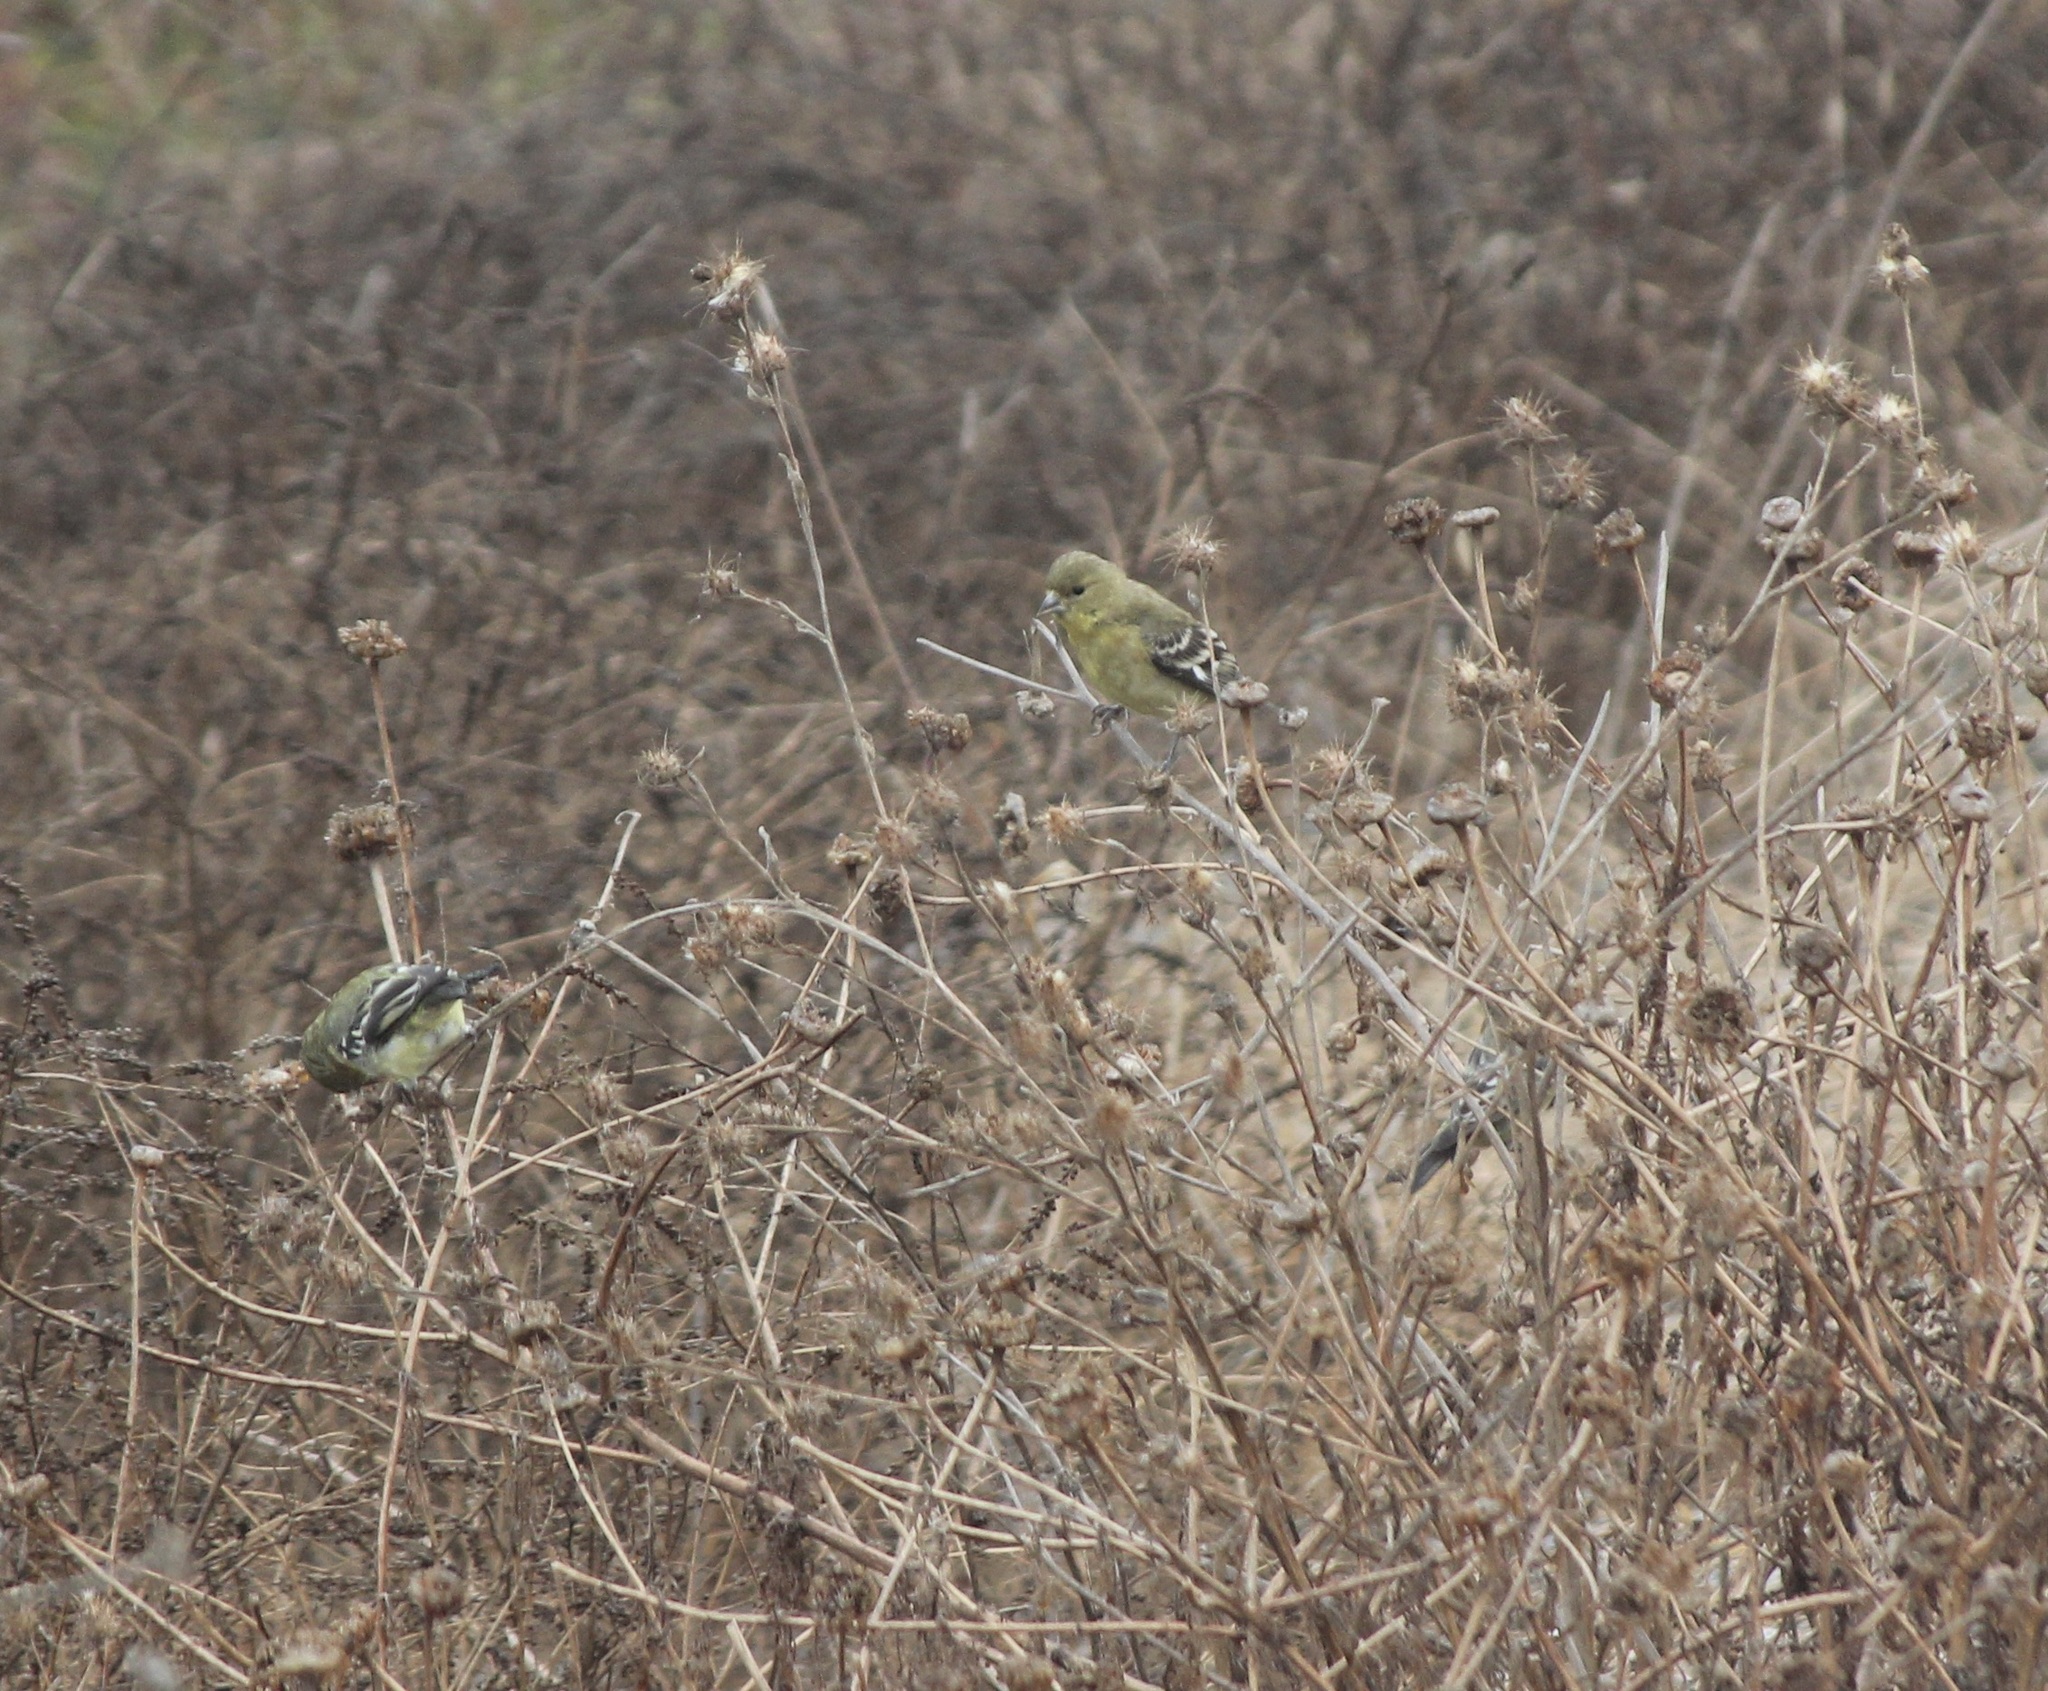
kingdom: Animalia
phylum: Chordata
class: Aves
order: Passeriformes
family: Fringillidae
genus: Spinus
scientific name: Spinus psaltria
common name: Lesser goldfinch
